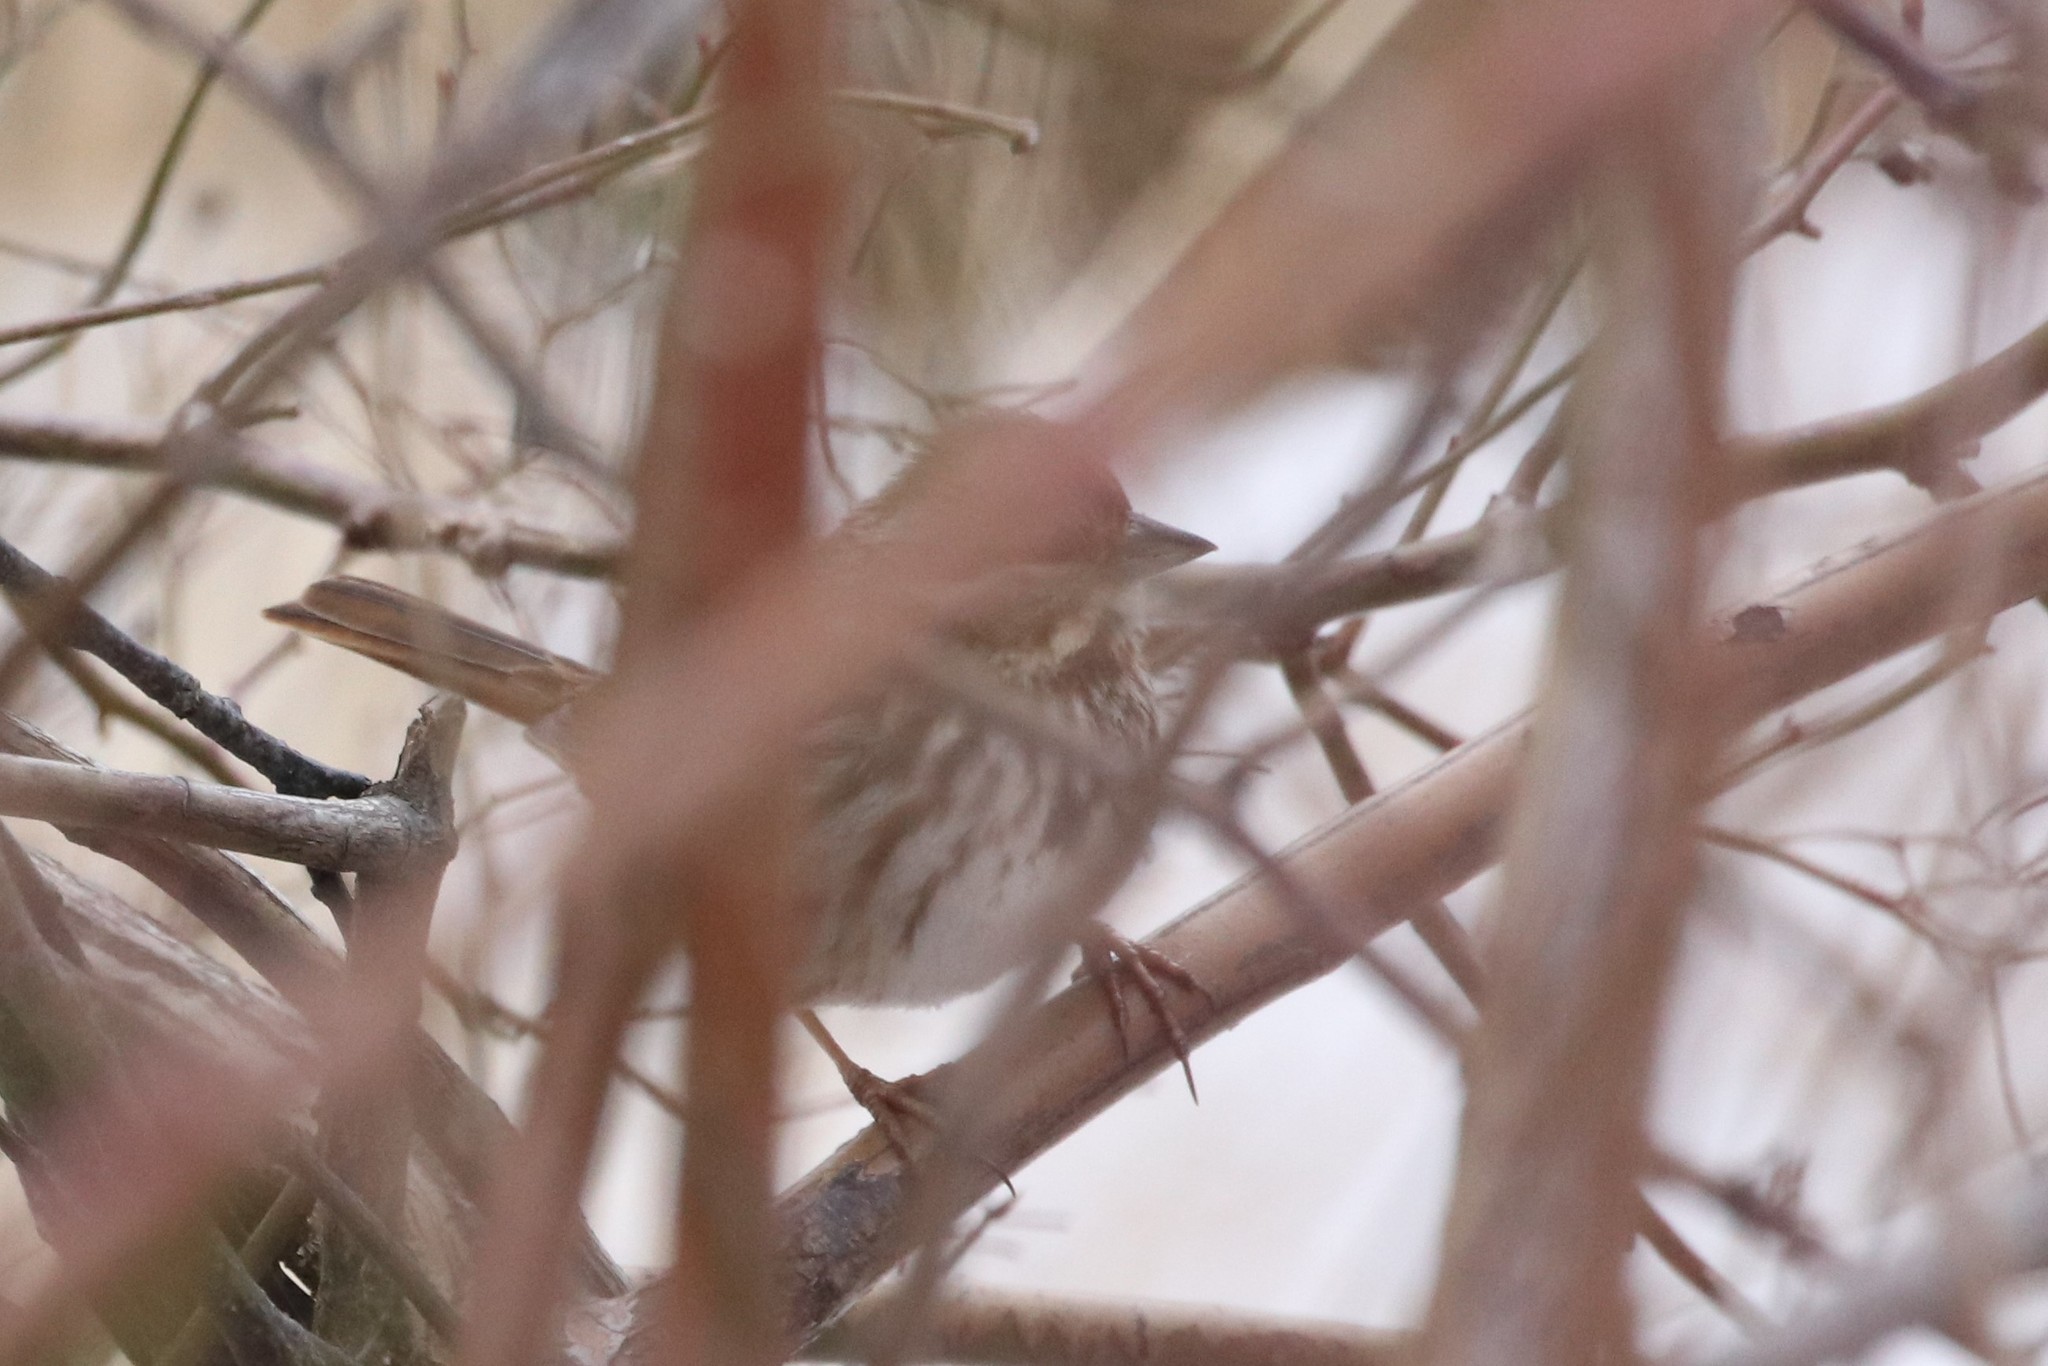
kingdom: Animalia
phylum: Chordata
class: Aves
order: Passeriformes
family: Passerellidae
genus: Melospiza
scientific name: Melospiza melodia
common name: Song sparrow
